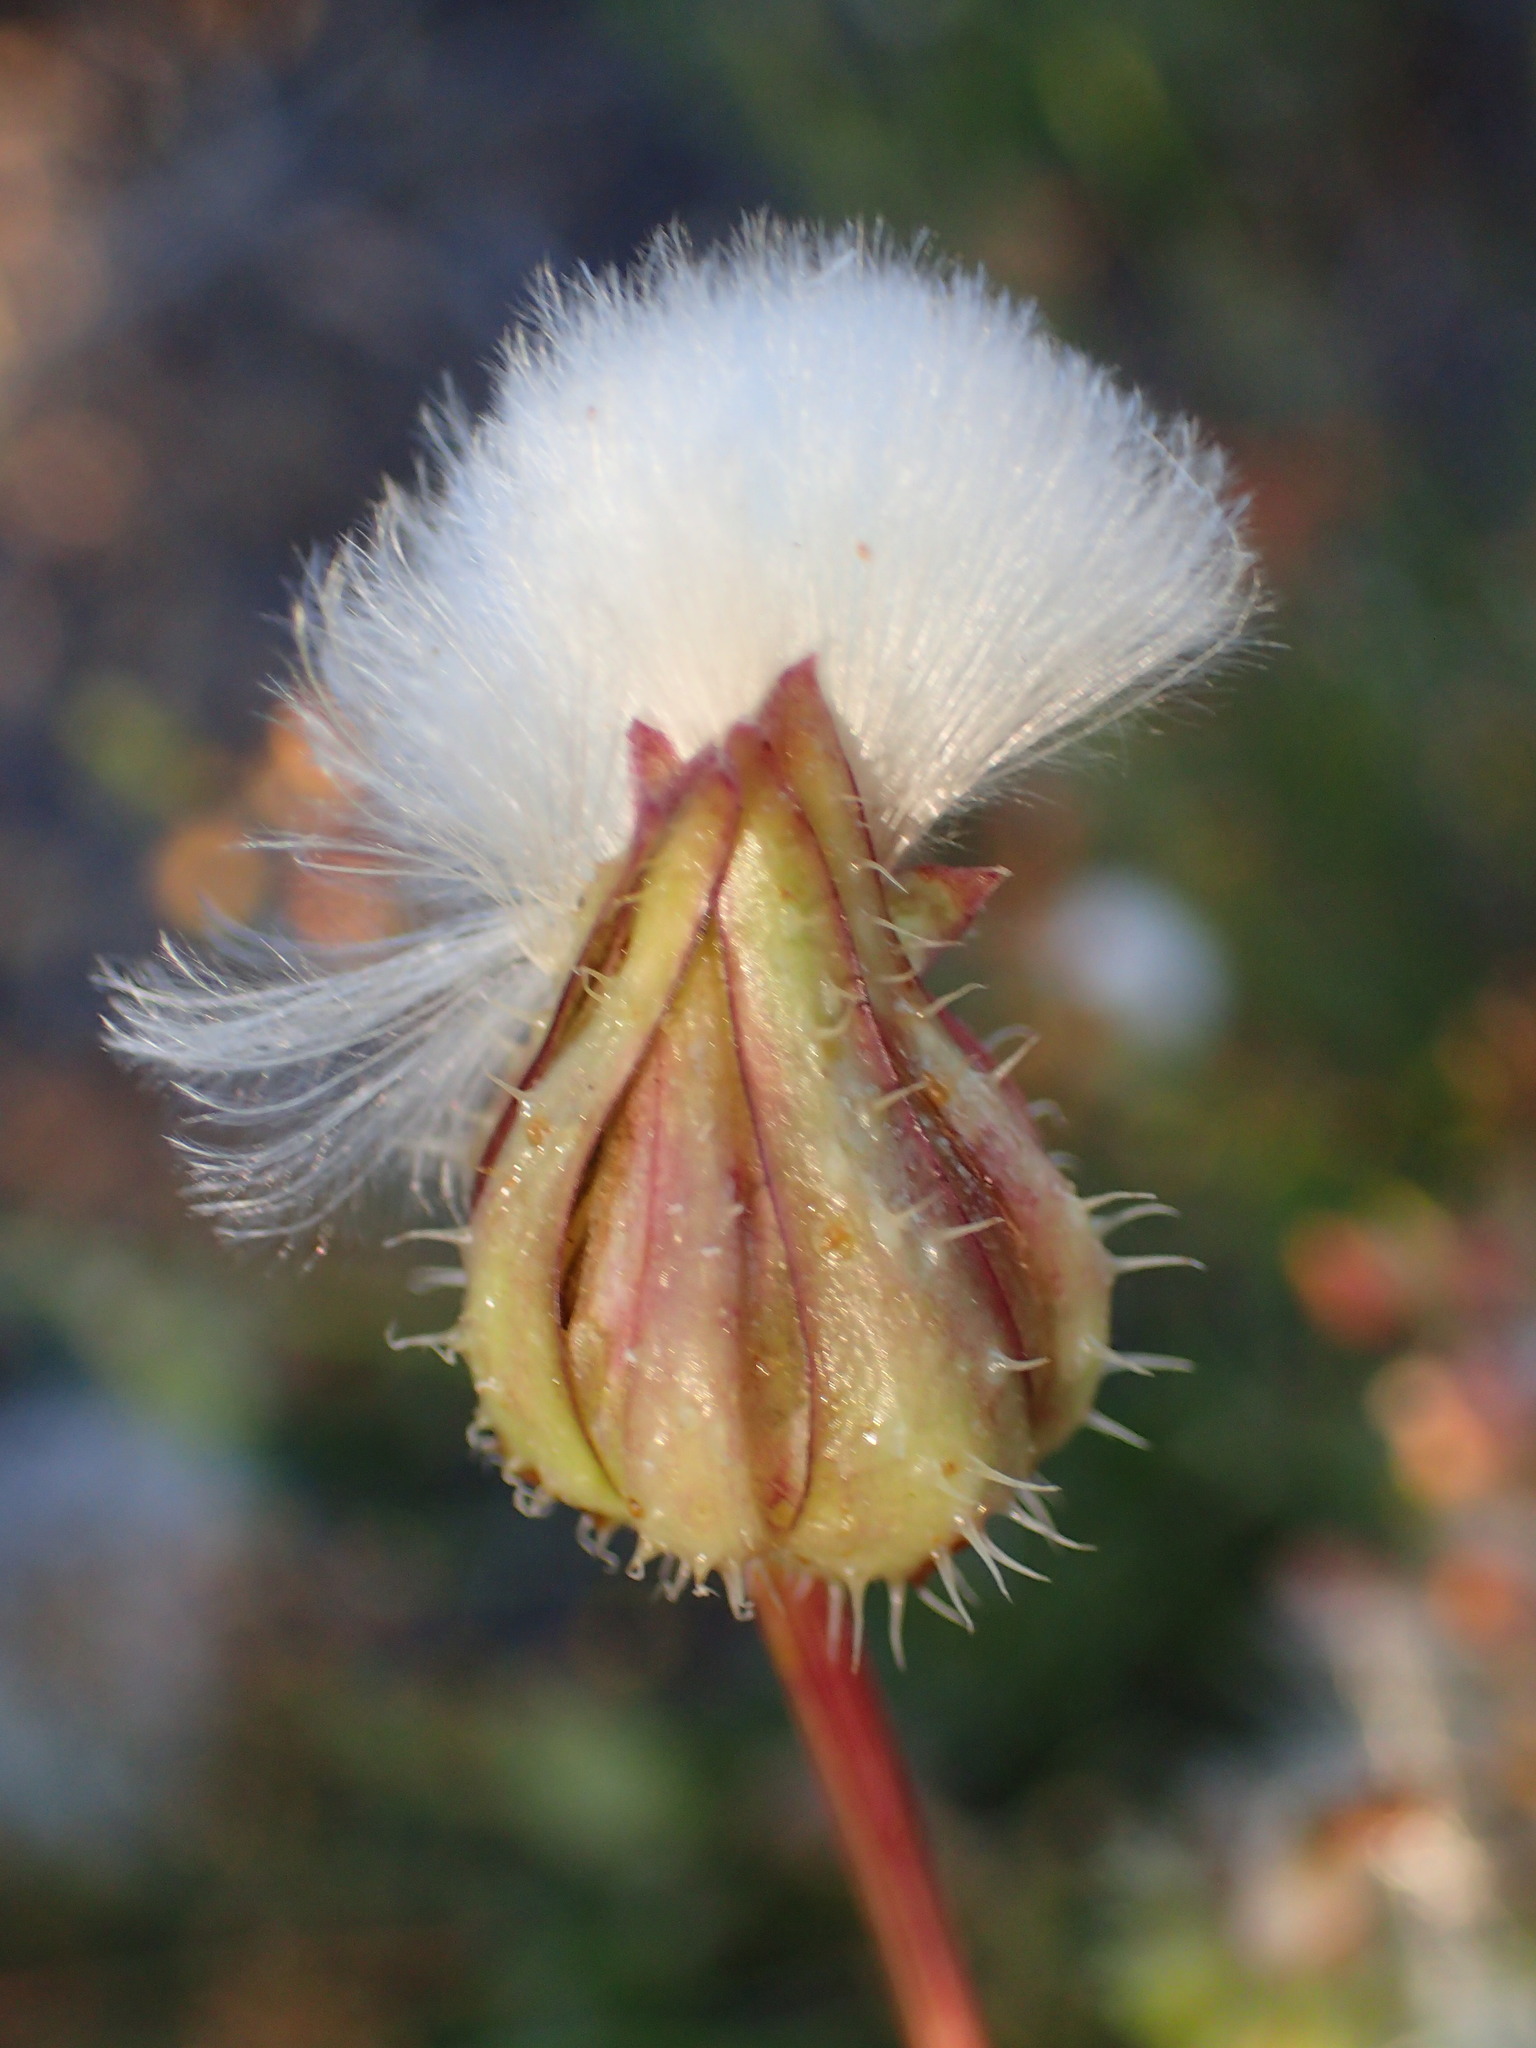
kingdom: Plantae
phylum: Tracheophyta
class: Magnoliopsida
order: Asterales
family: Asteraceae
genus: Urospermum
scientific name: Urospermum picroides
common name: False hawkbit
